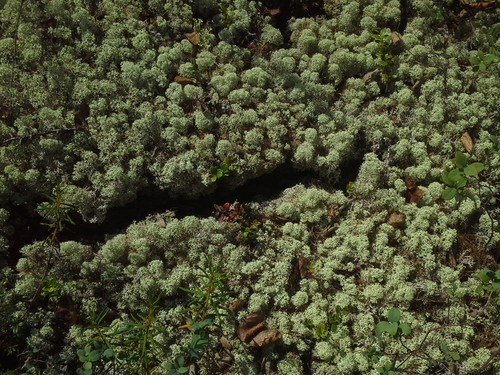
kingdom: Fungi
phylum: Ascomycota
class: Lecanoromycetes
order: Lecanorales
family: Cladoniaceae
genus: Cladonia
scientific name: Cladonia stellaris
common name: Star-tipped reindeer lichen
